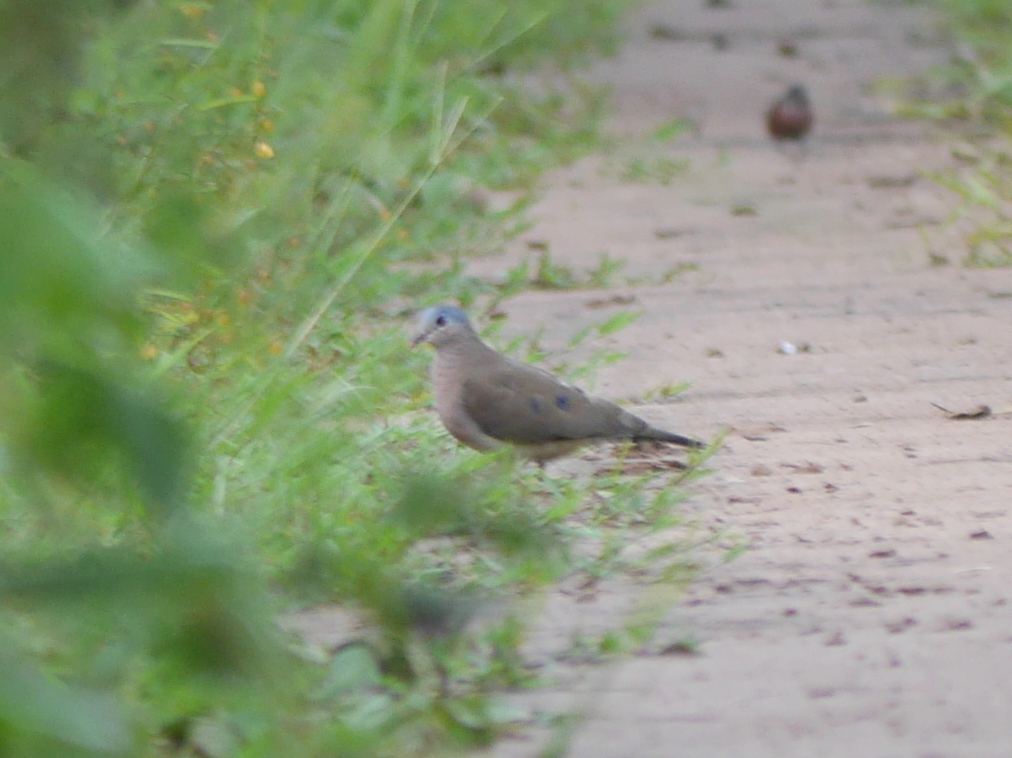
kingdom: Animalia
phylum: Chordata
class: Aves
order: Columbiformes
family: Columbidae
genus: Turtur
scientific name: Turtur afer
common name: Blue-spotted wood dove
